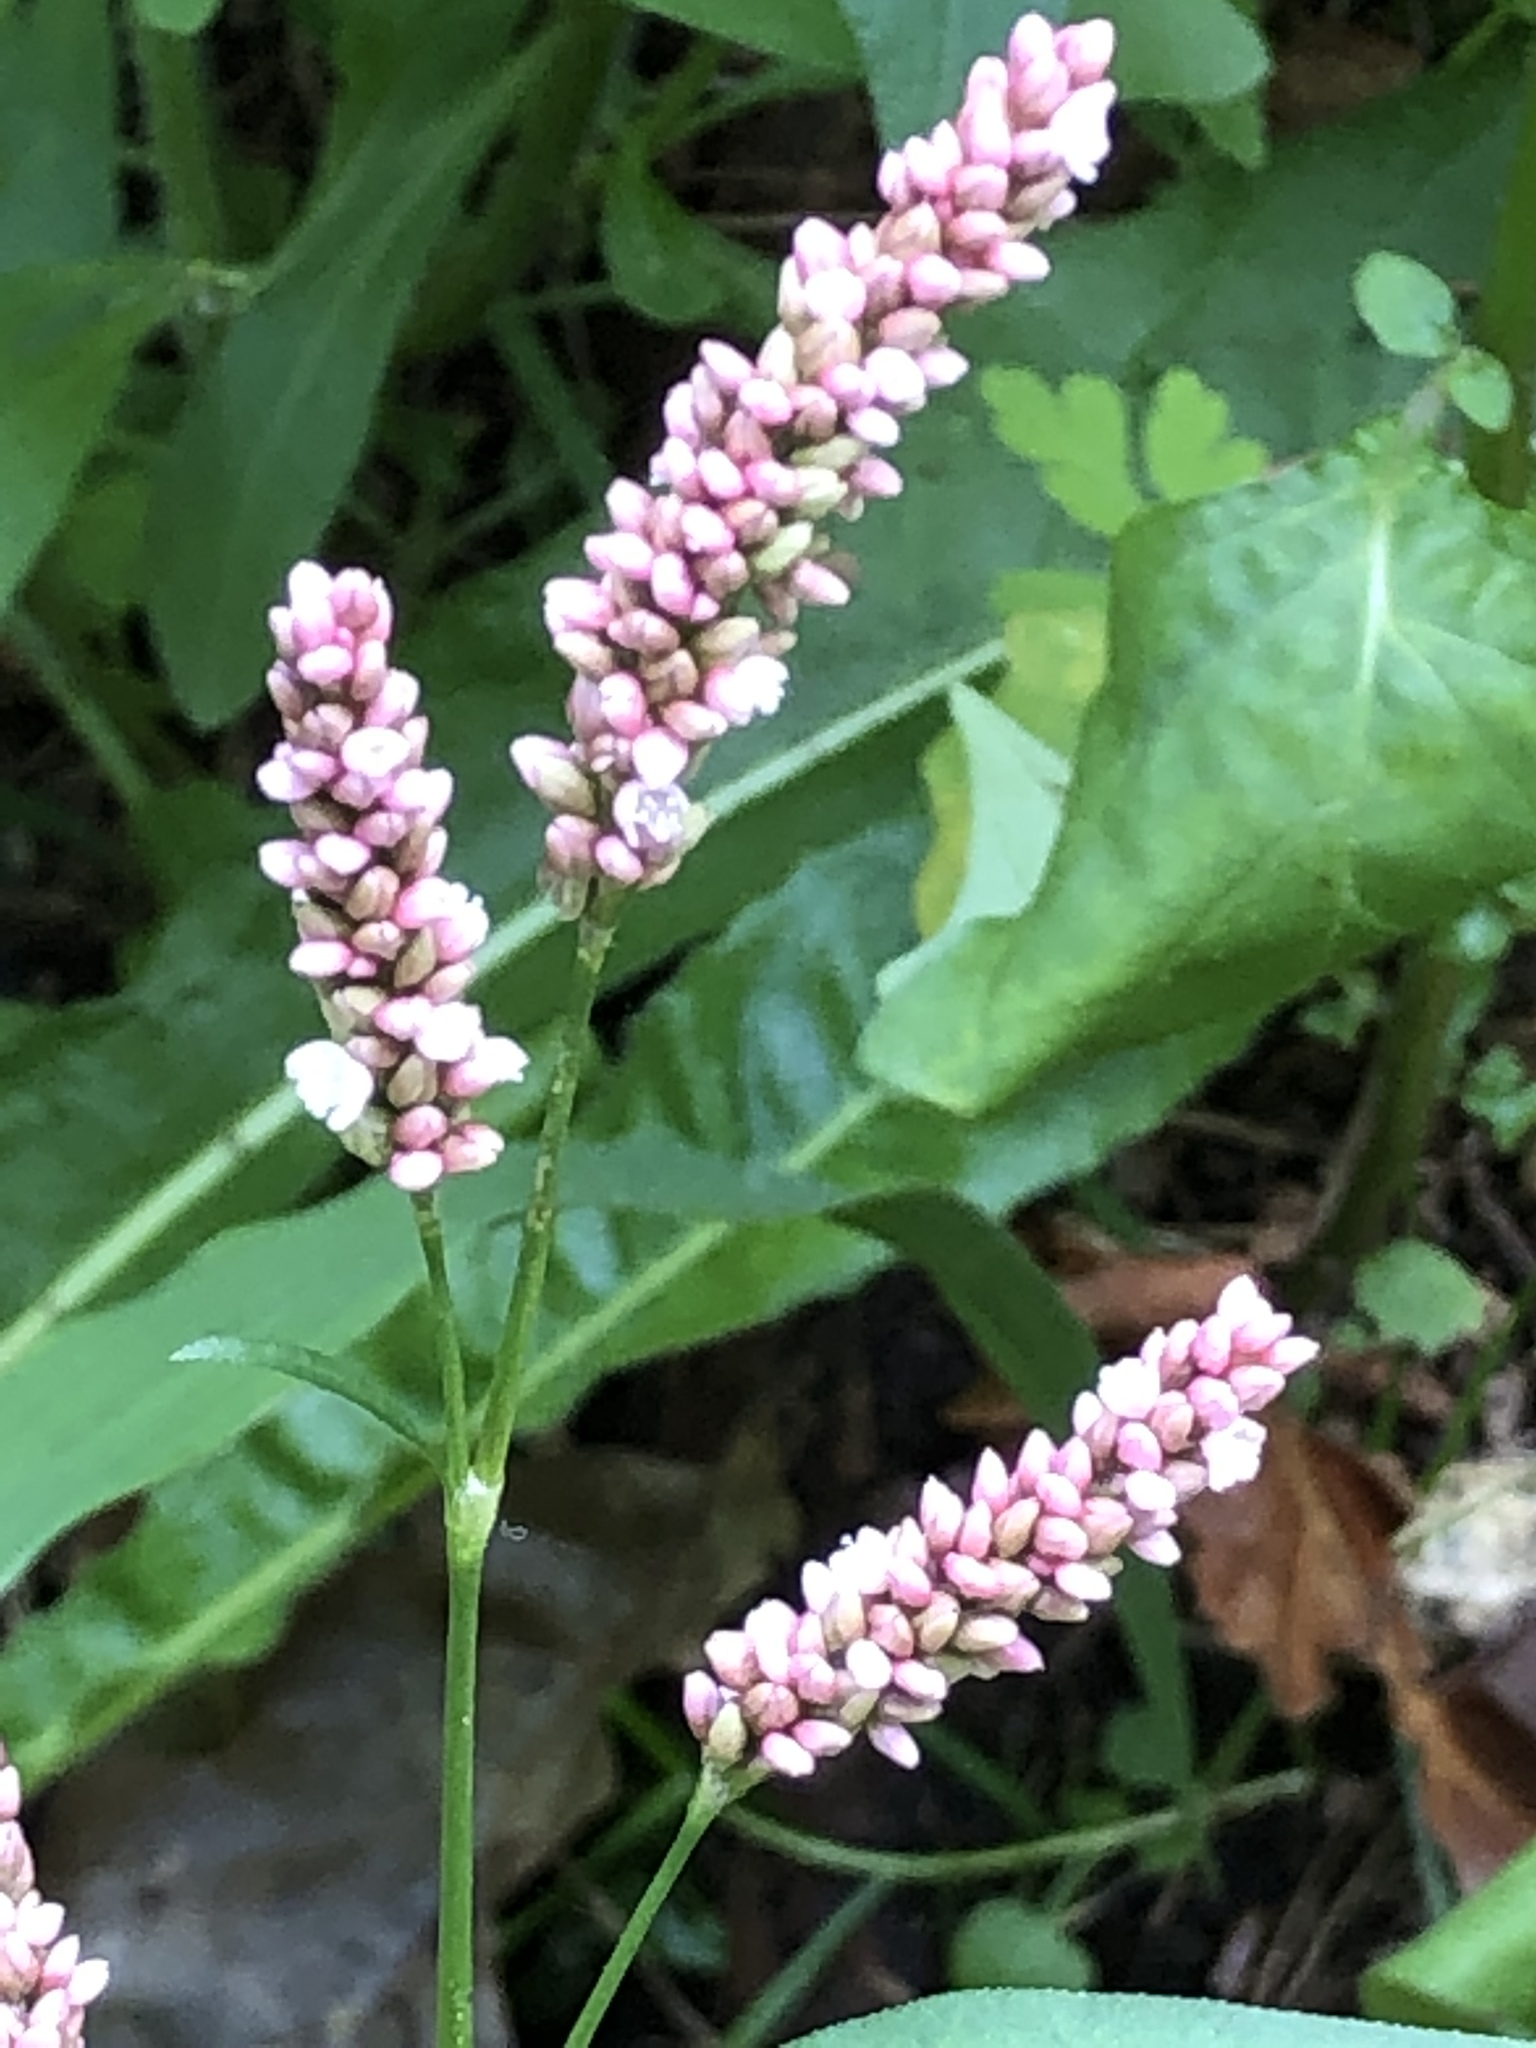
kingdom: Plantae
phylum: Tracheophyta
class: Magnoliopsida
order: Caryophyllales
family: Polygonaceae
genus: Persicaria
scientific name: Persicaria maculosa
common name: Redshank
